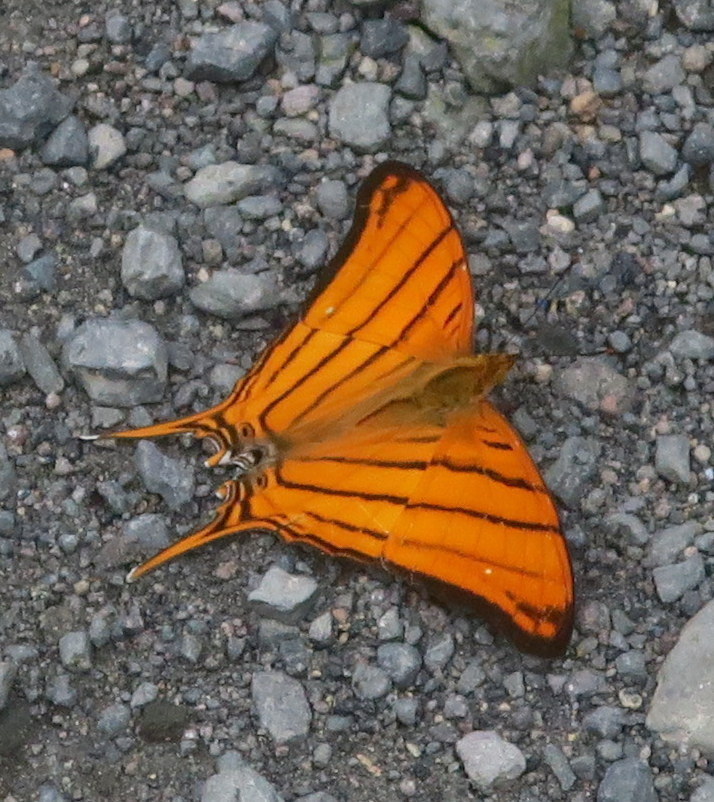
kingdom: Animalia
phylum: Arthropoda
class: Insecta
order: Lepidoptera
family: Nymphalidae
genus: Marpesia
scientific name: Marpesia berania
